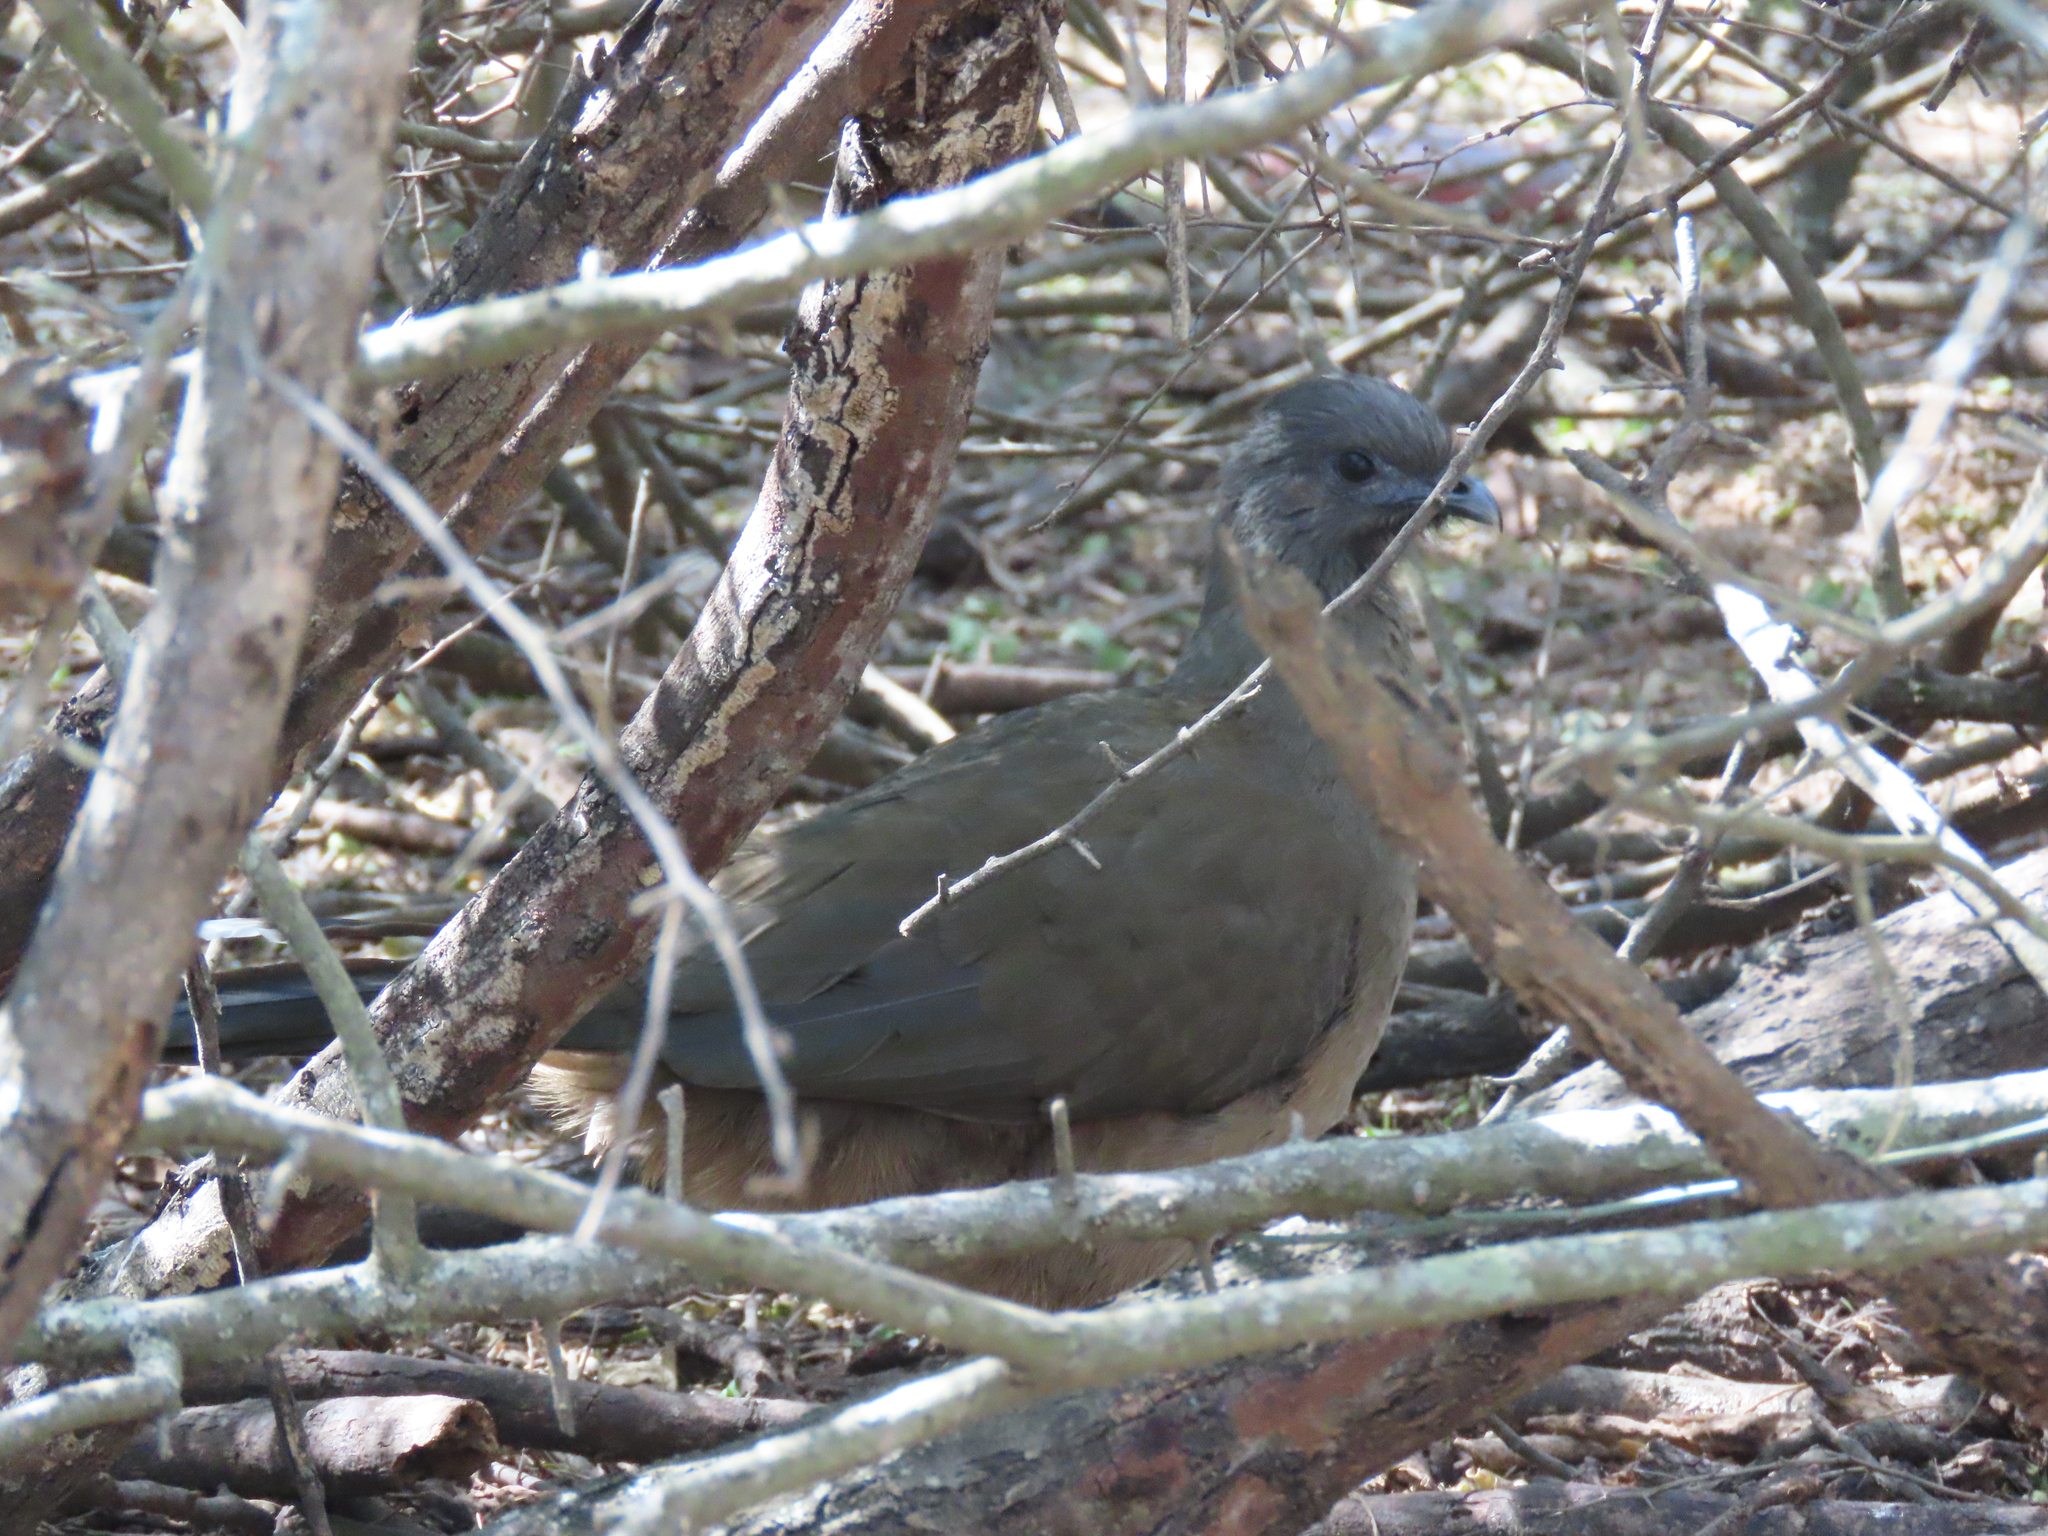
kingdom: Animalia
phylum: Chordata
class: Aves
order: Galliformes
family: Cracidae
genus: Ortalis
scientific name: Ortalis vetula
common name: Plain chachalaca
